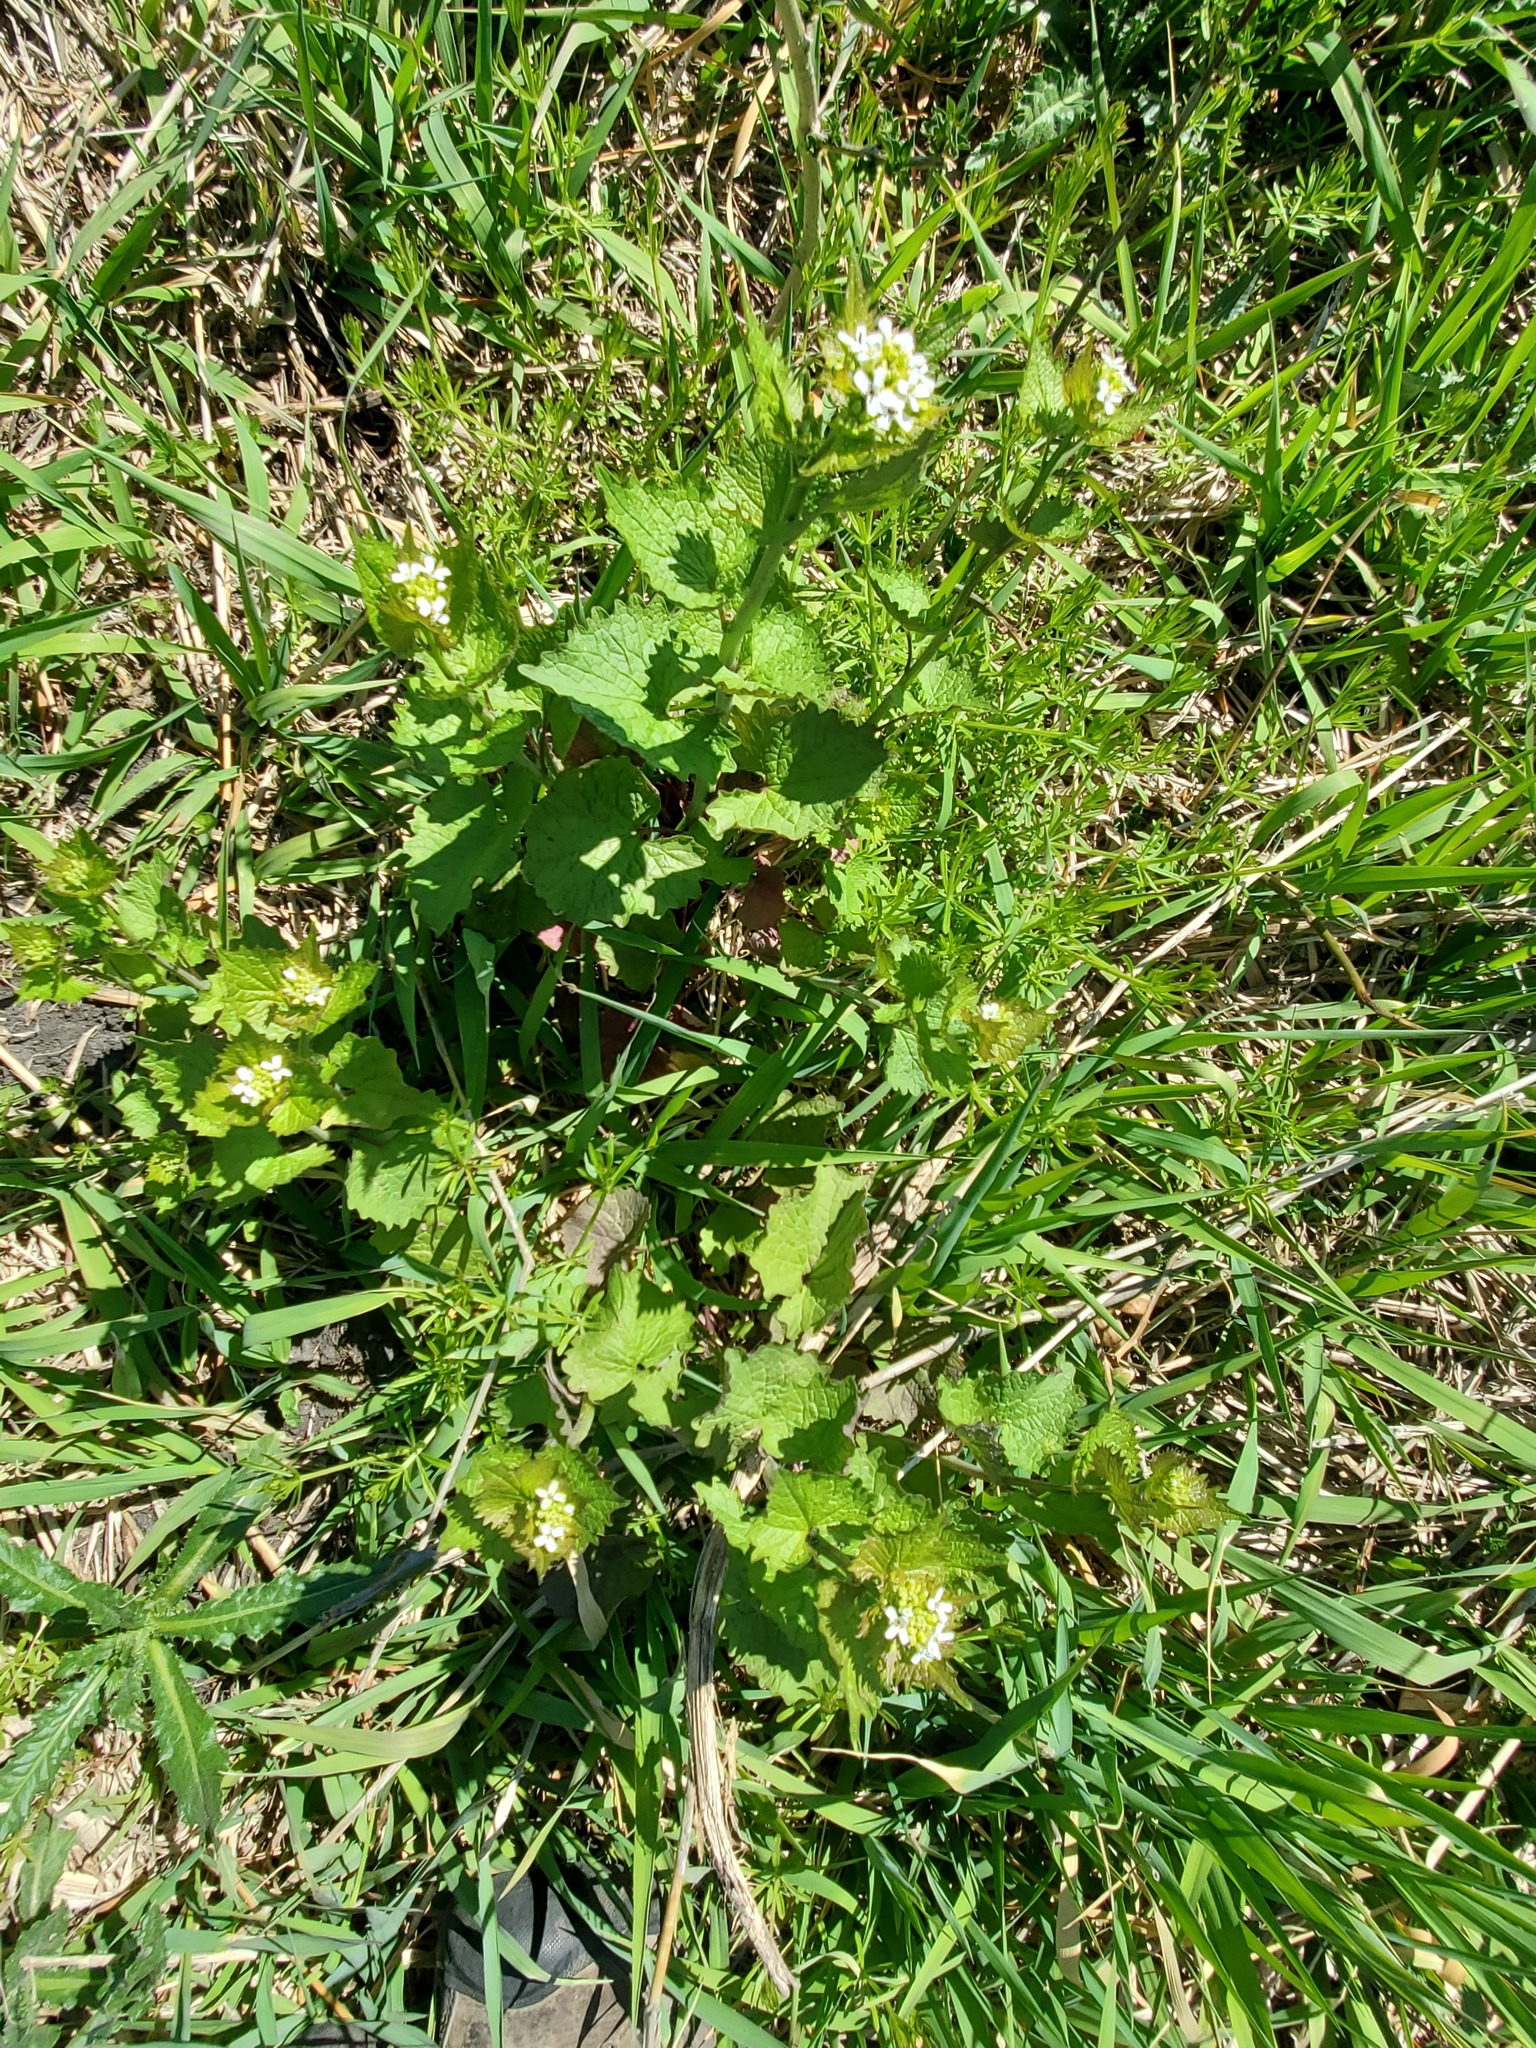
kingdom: Plantae
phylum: Tracheophyta
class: Magnoliopsida
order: Brassicales
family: Brassicaceae
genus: Alliaria
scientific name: Alliaria petiolata
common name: Garlic mustard
